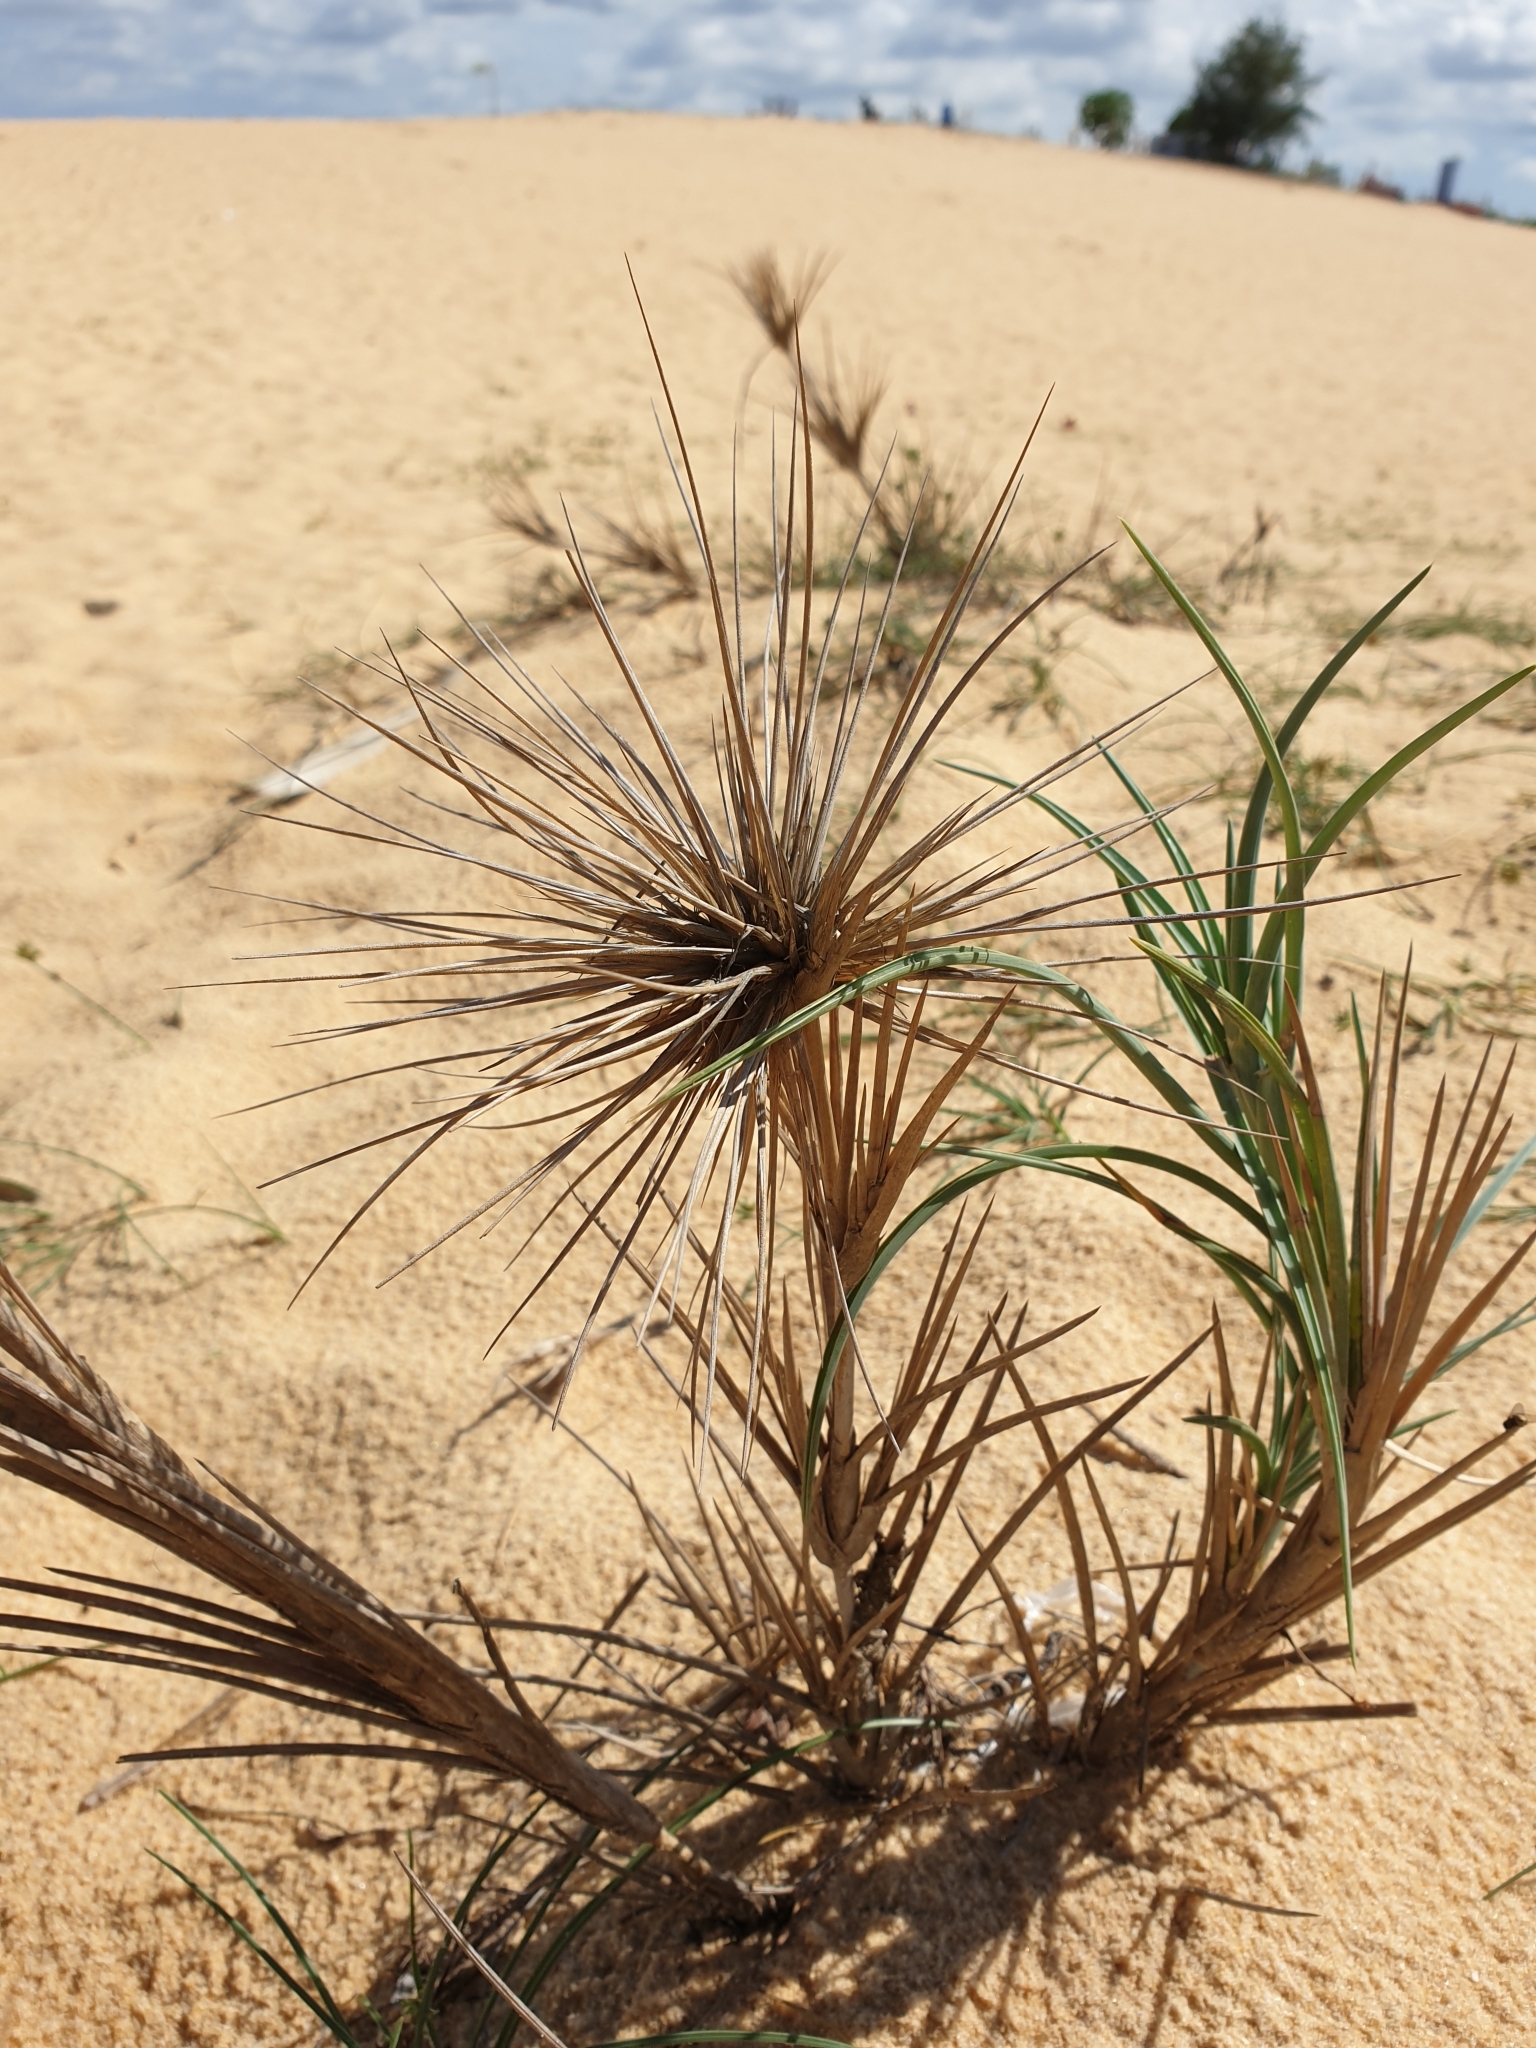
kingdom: Plantae
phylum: Tracheophyta
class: Liliopsida
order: Poales
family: Poaceae
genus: Spinifex
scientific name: Spinifex littoreus
